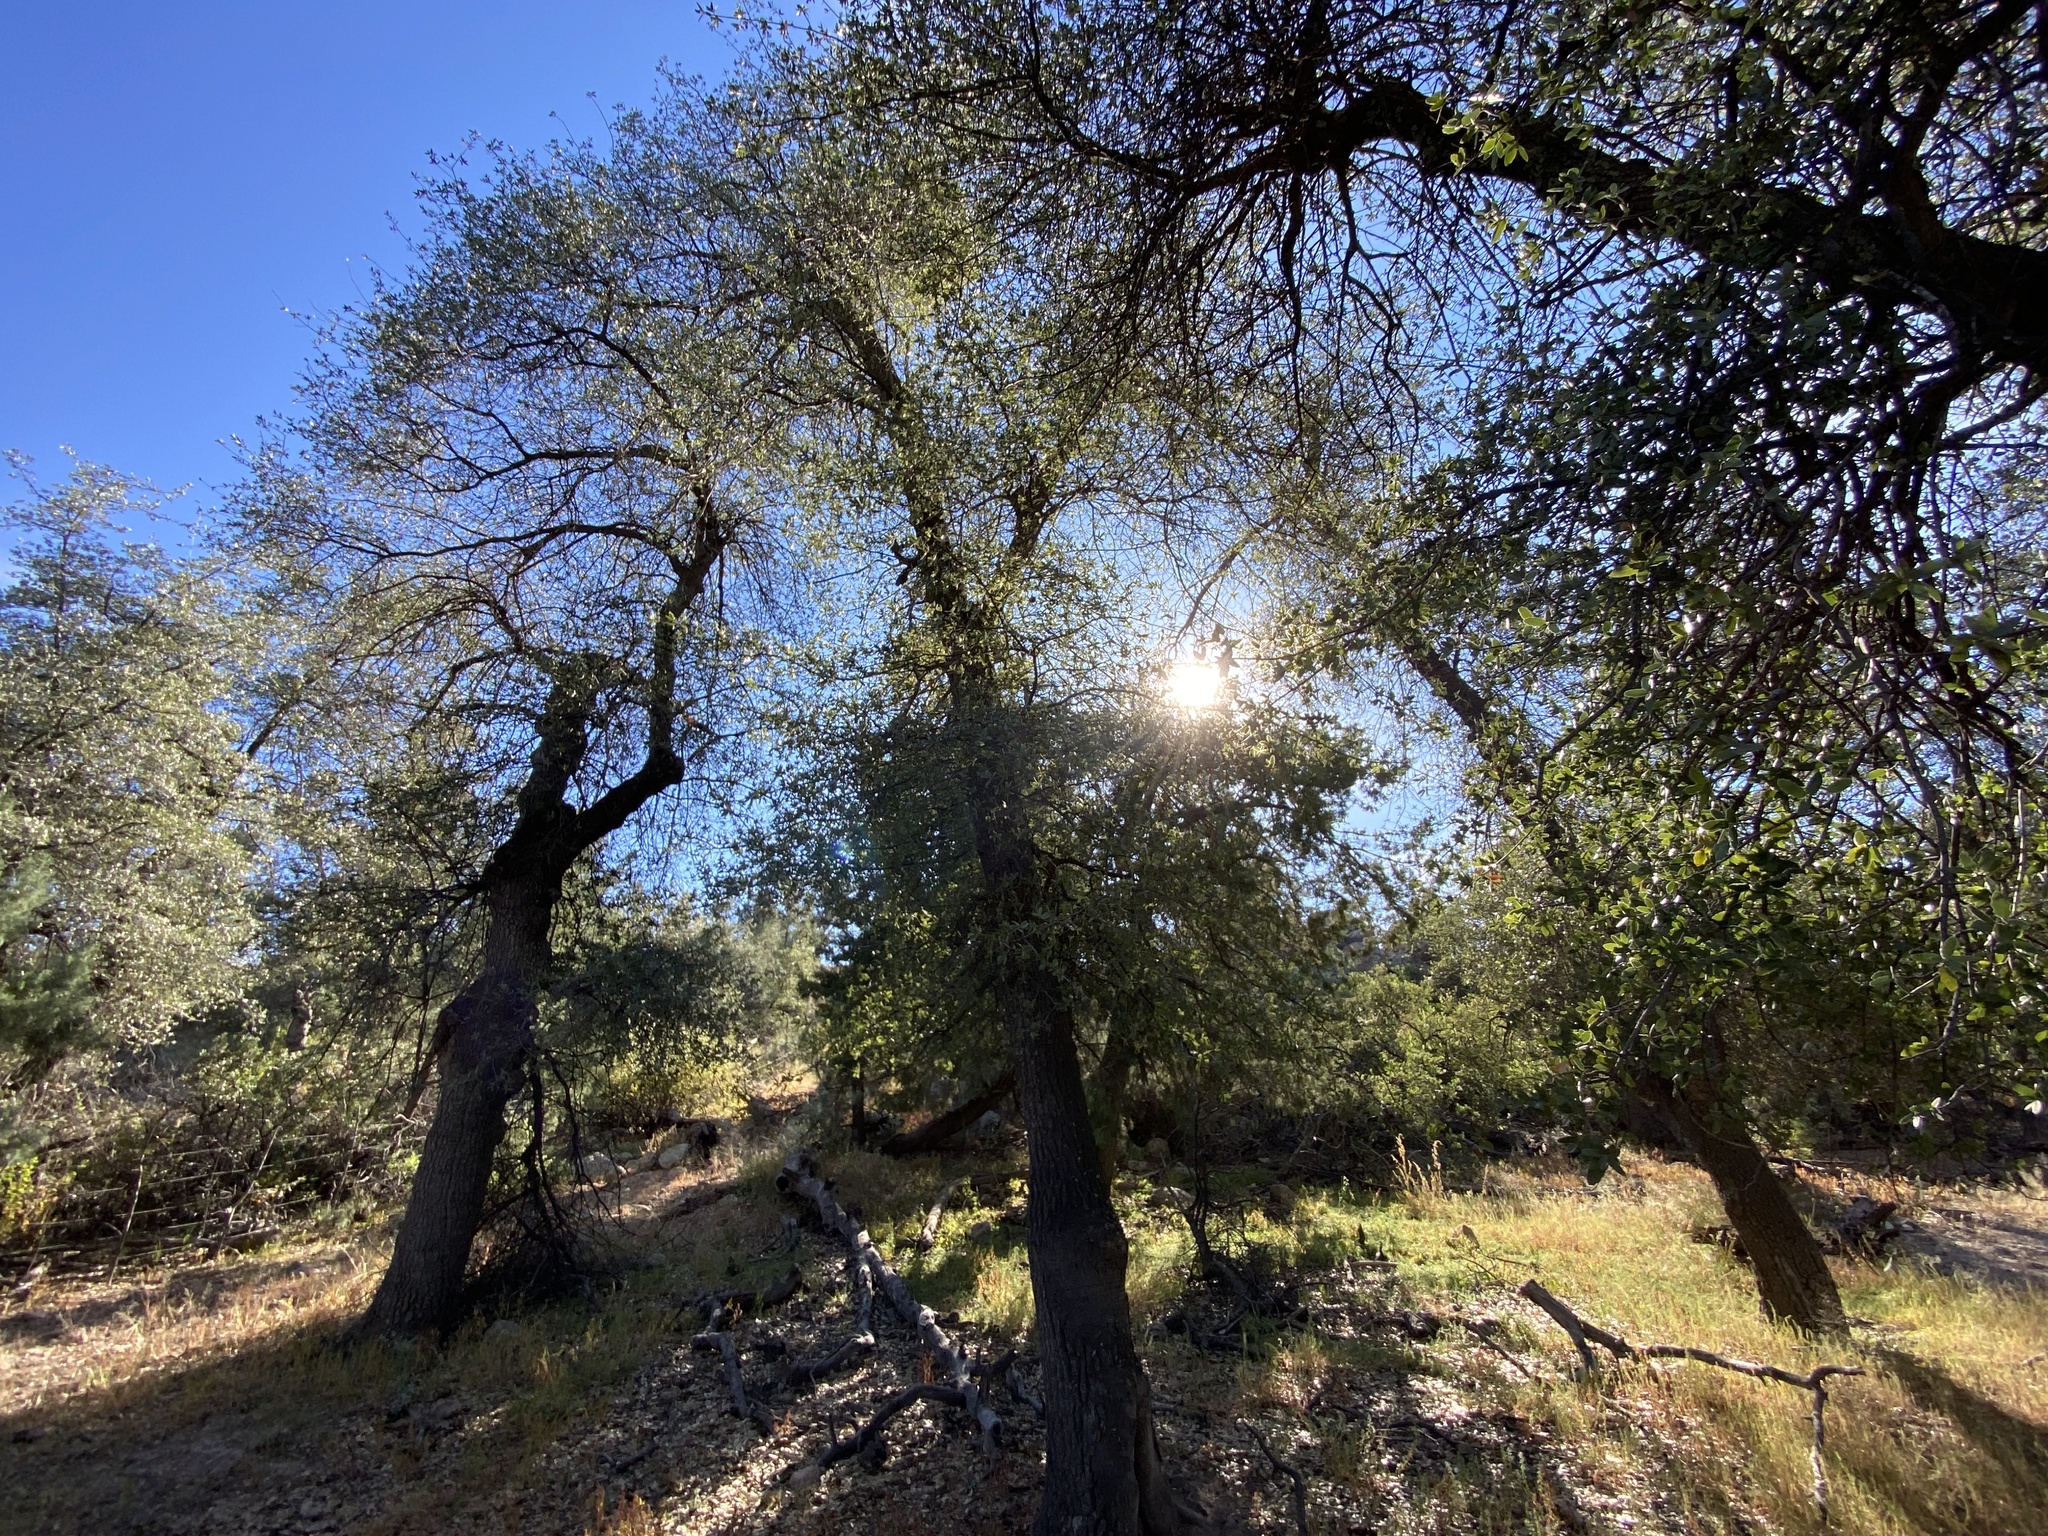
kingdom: Plantae
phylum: Tracheophyta
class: Magnoliopsida
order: Fagales
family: Fagaceae
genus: Quercus
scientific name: Quercus emoryi
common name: Emory oak
